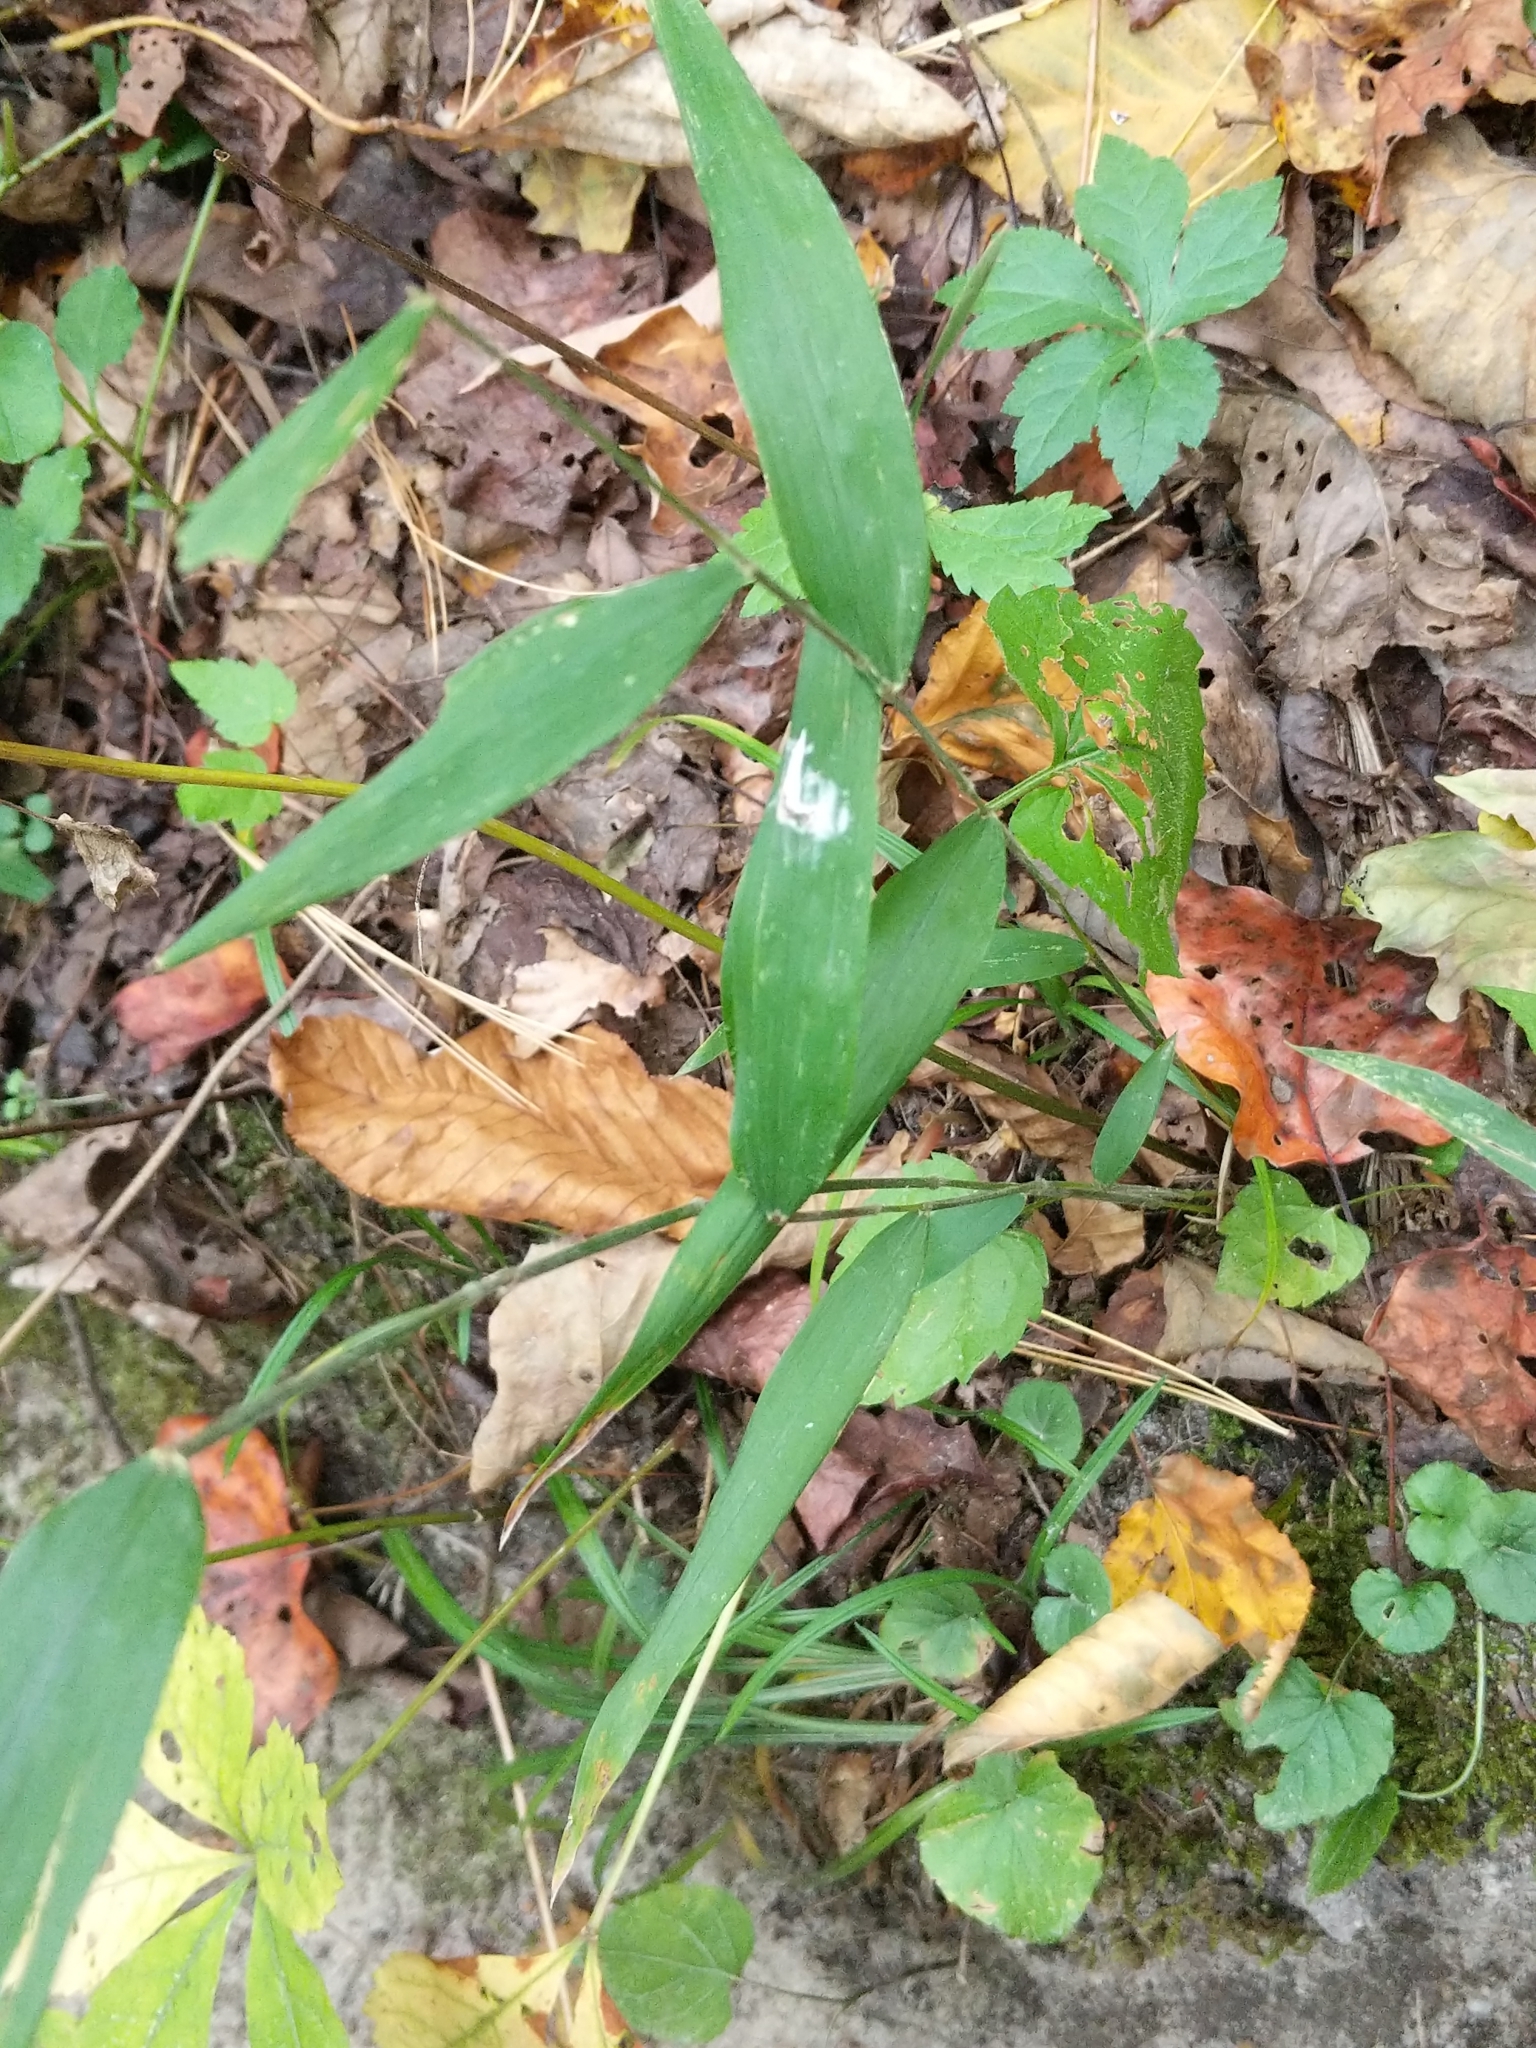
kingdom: Plantae
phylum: Tracheophyta
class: Liliopsida
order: Poales
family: Poaceae
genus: Brachyelytrum
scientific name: Brachyelytrum erectum
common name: Bearded shorthusk
